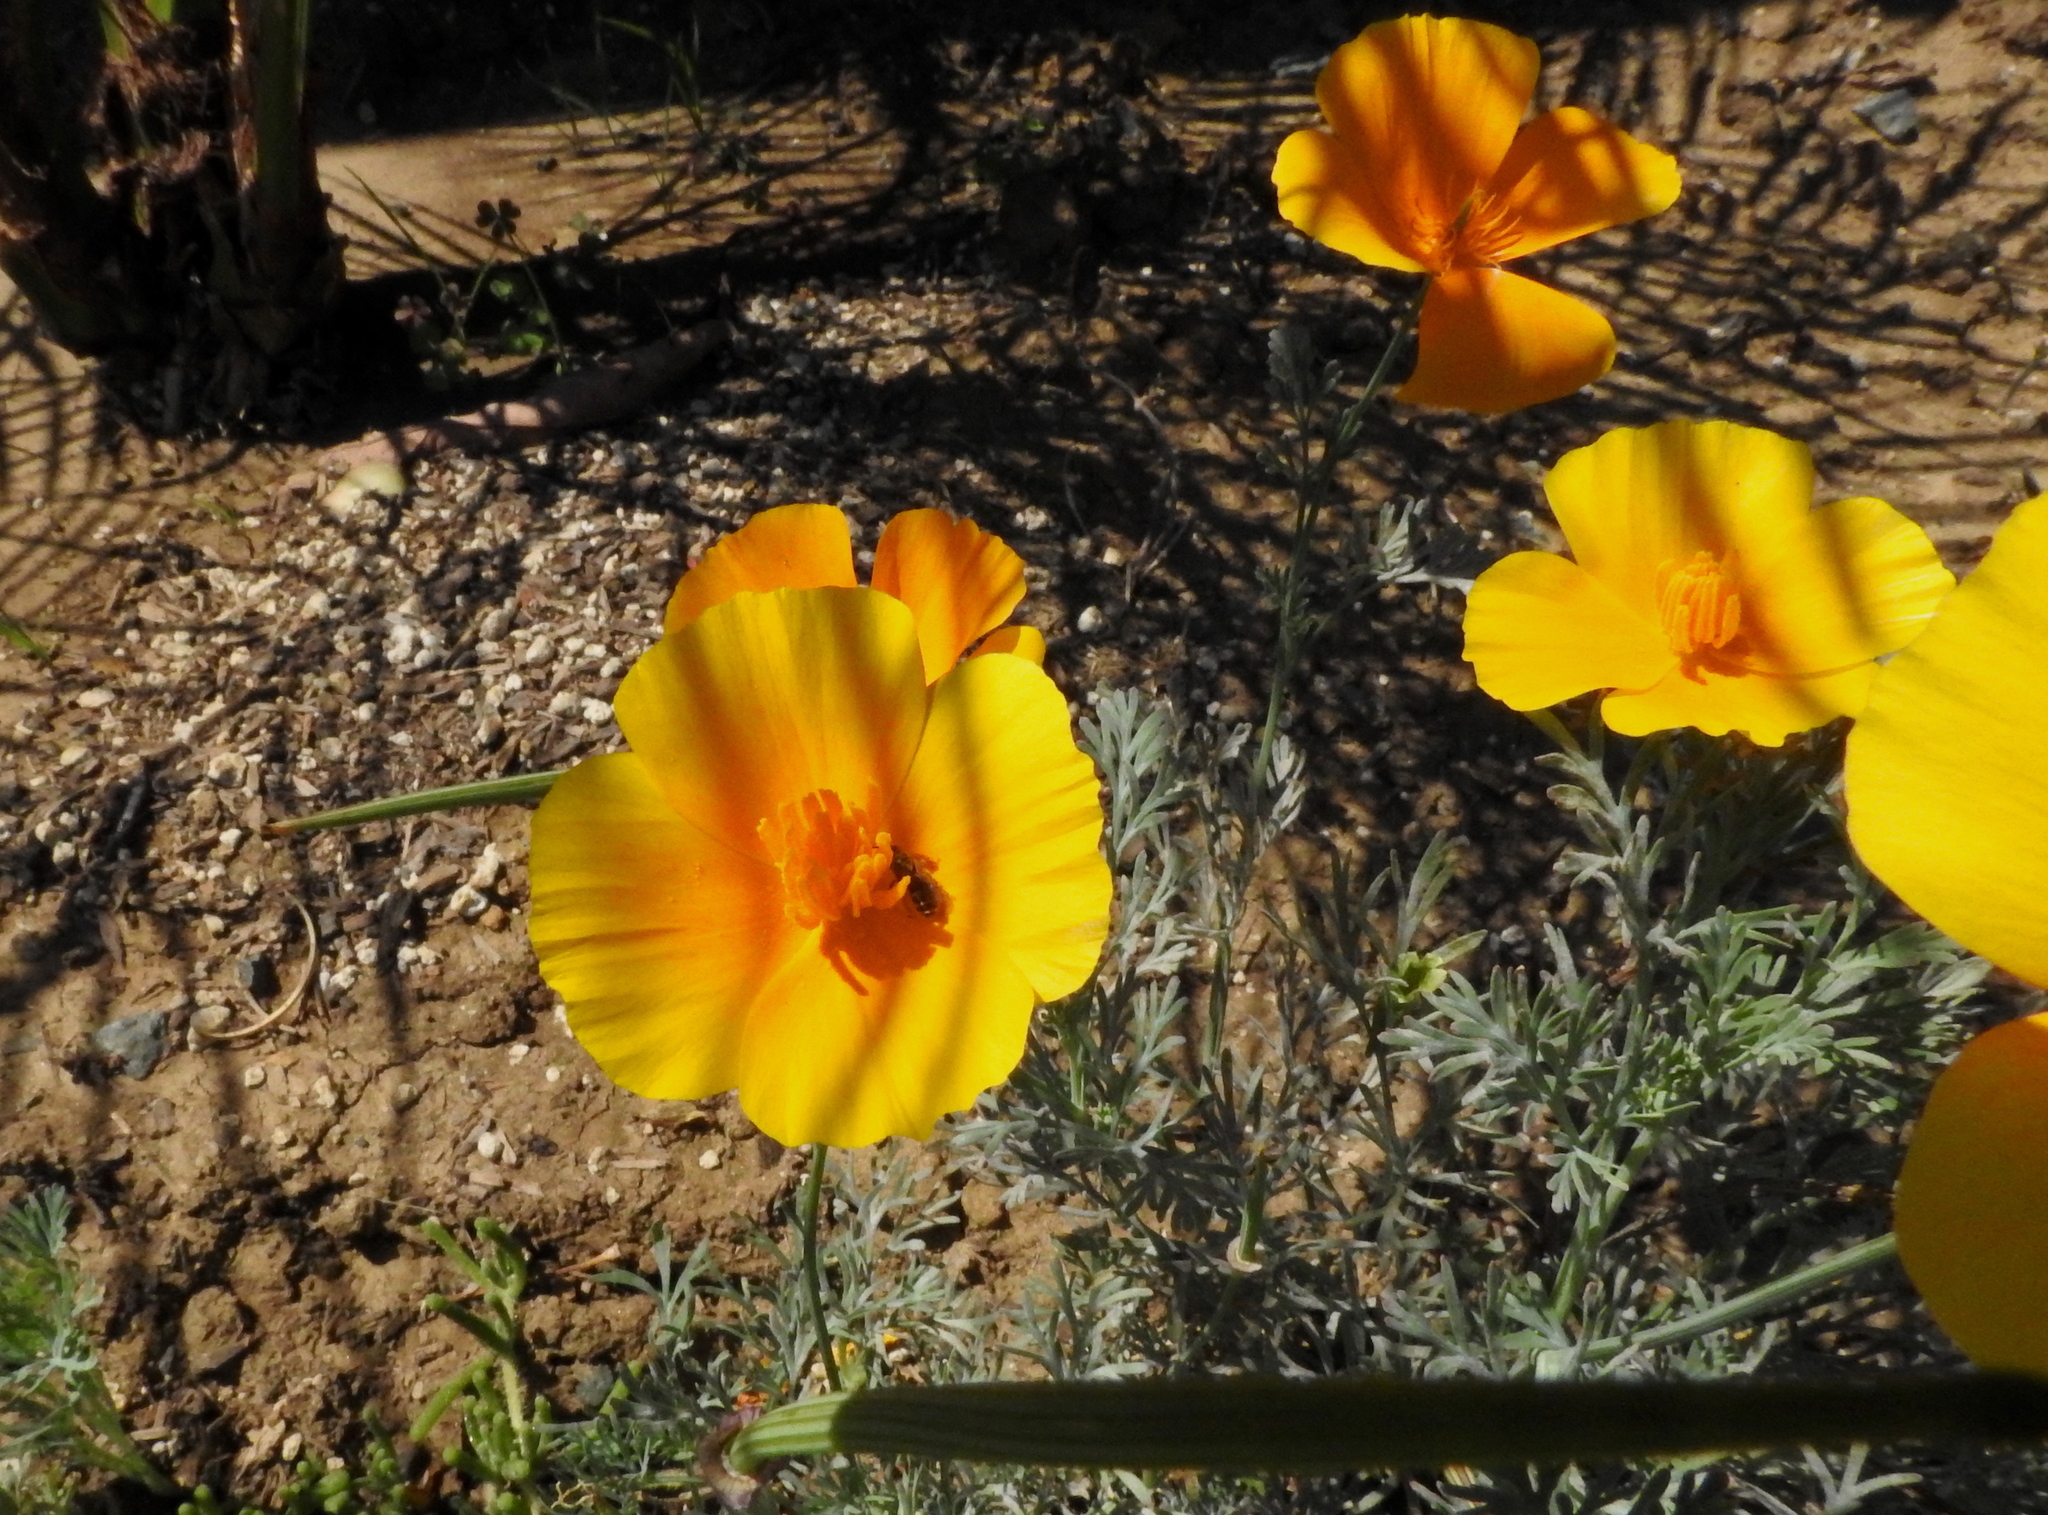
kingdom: Plantae
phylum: Tracheophyta
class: Magnoliopsida
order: Ranunculales
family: Papaveraceae
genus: Eschscholzia
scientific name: Eschscholzia californica
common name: California poppy
